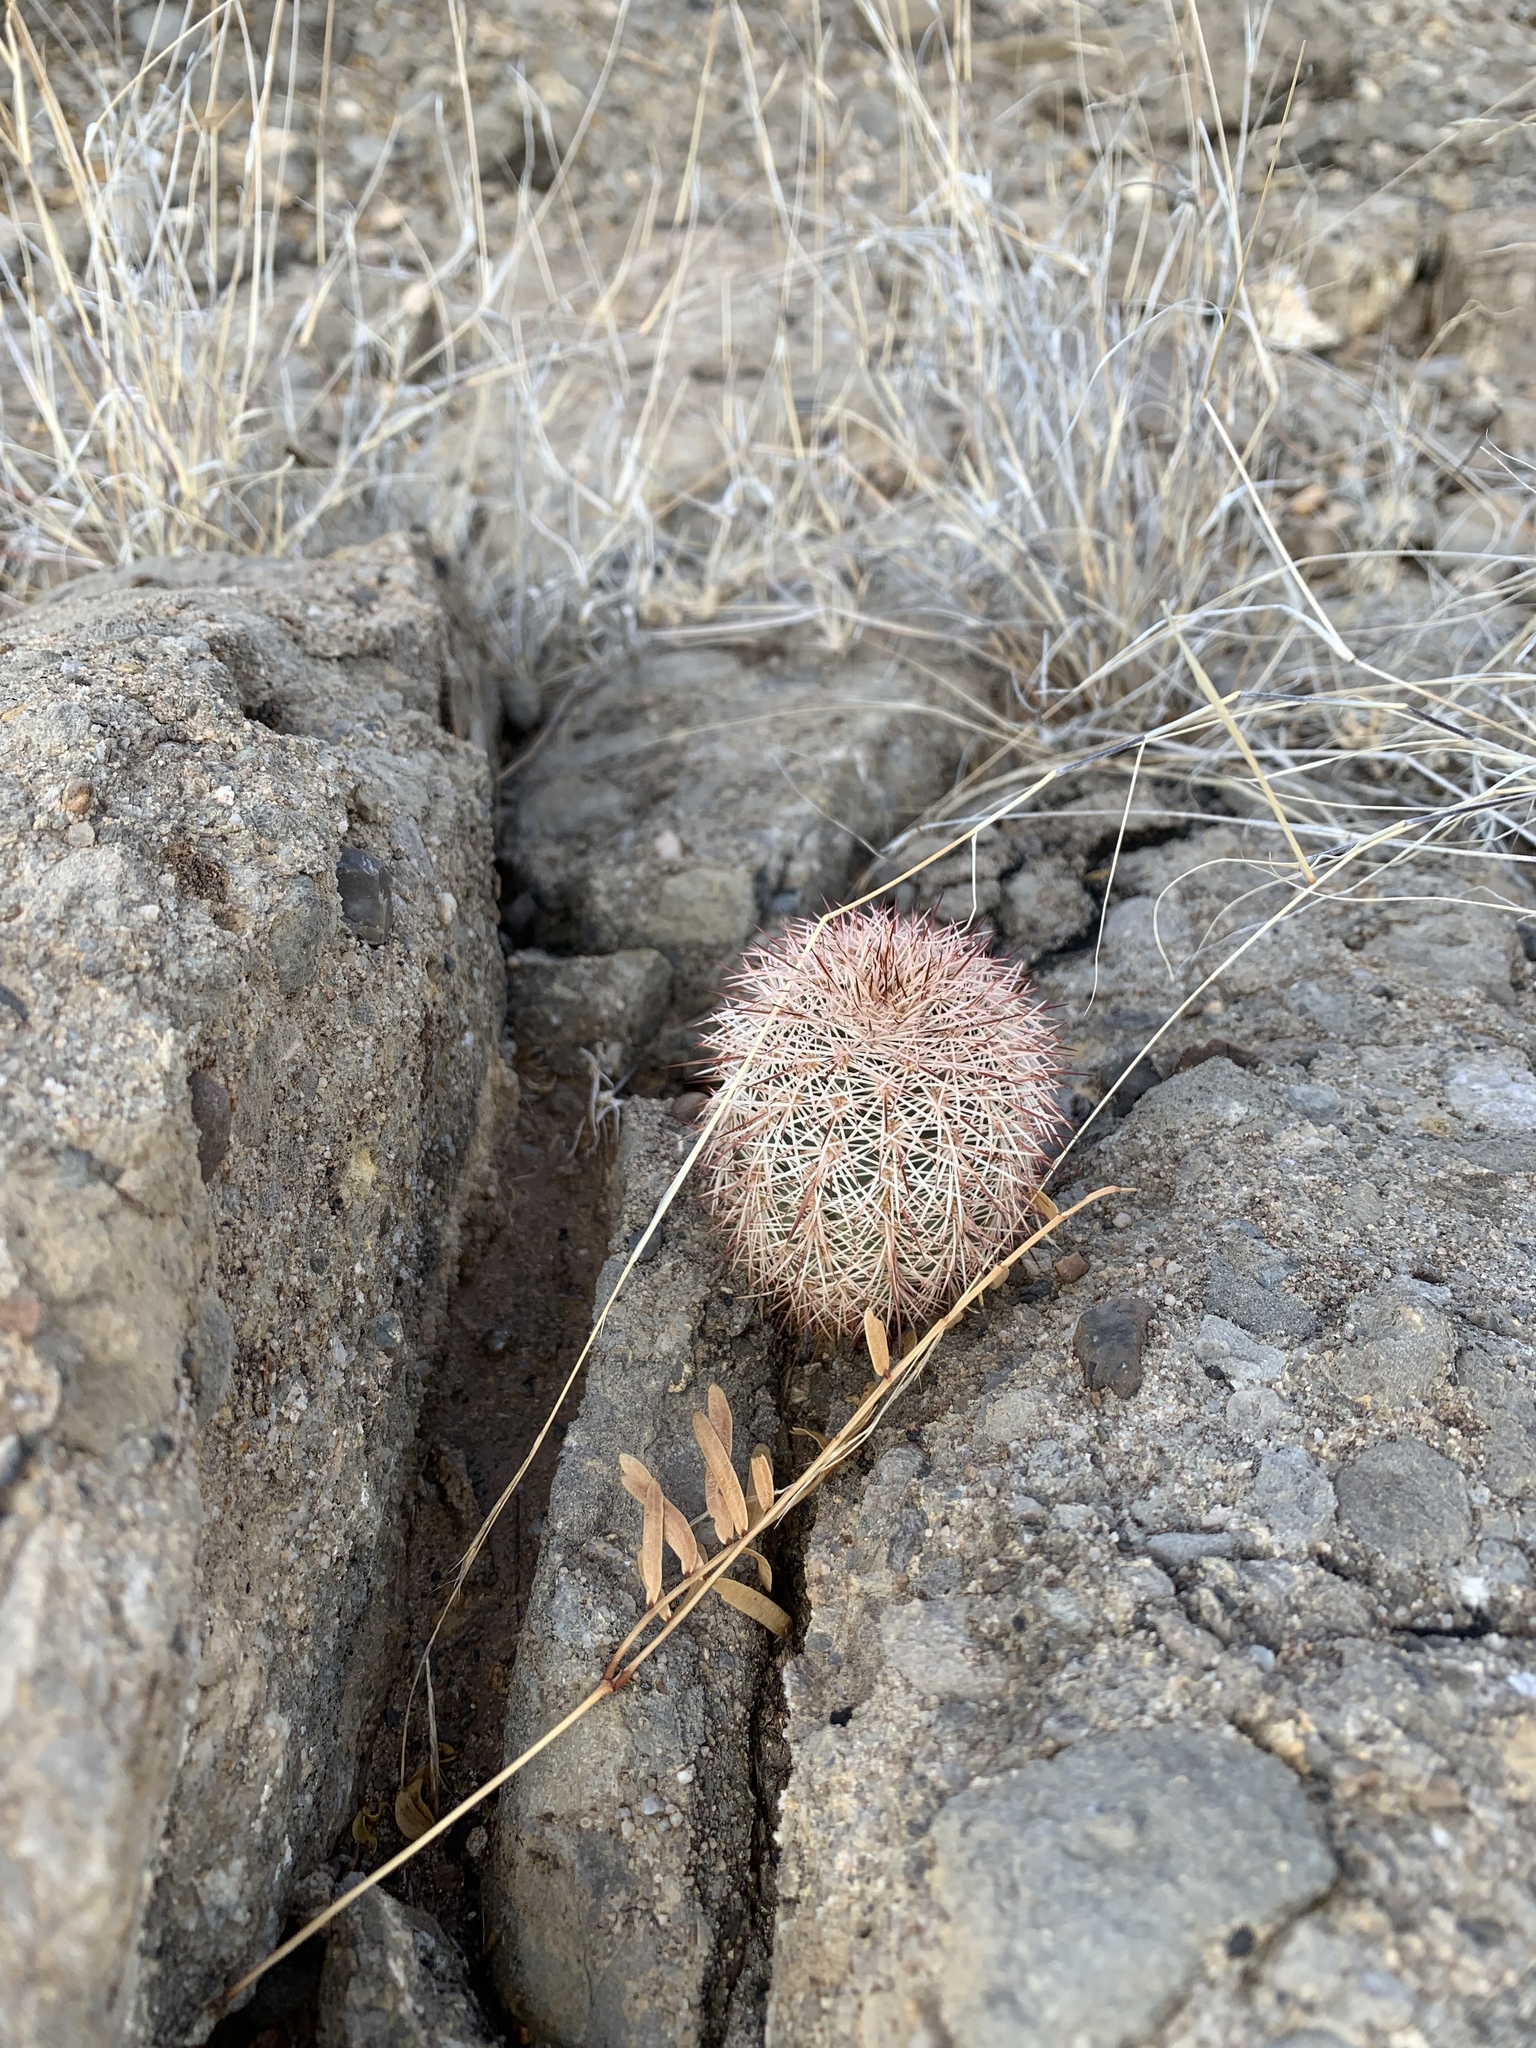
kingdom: Plantae
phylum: Tracheophyta
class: Magnoliopsida
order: Caryophyllales
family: Cactaceae
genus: Echinocereus
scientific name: Echinocereus dasyacanthus
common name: Spiny hedgehog cactus
